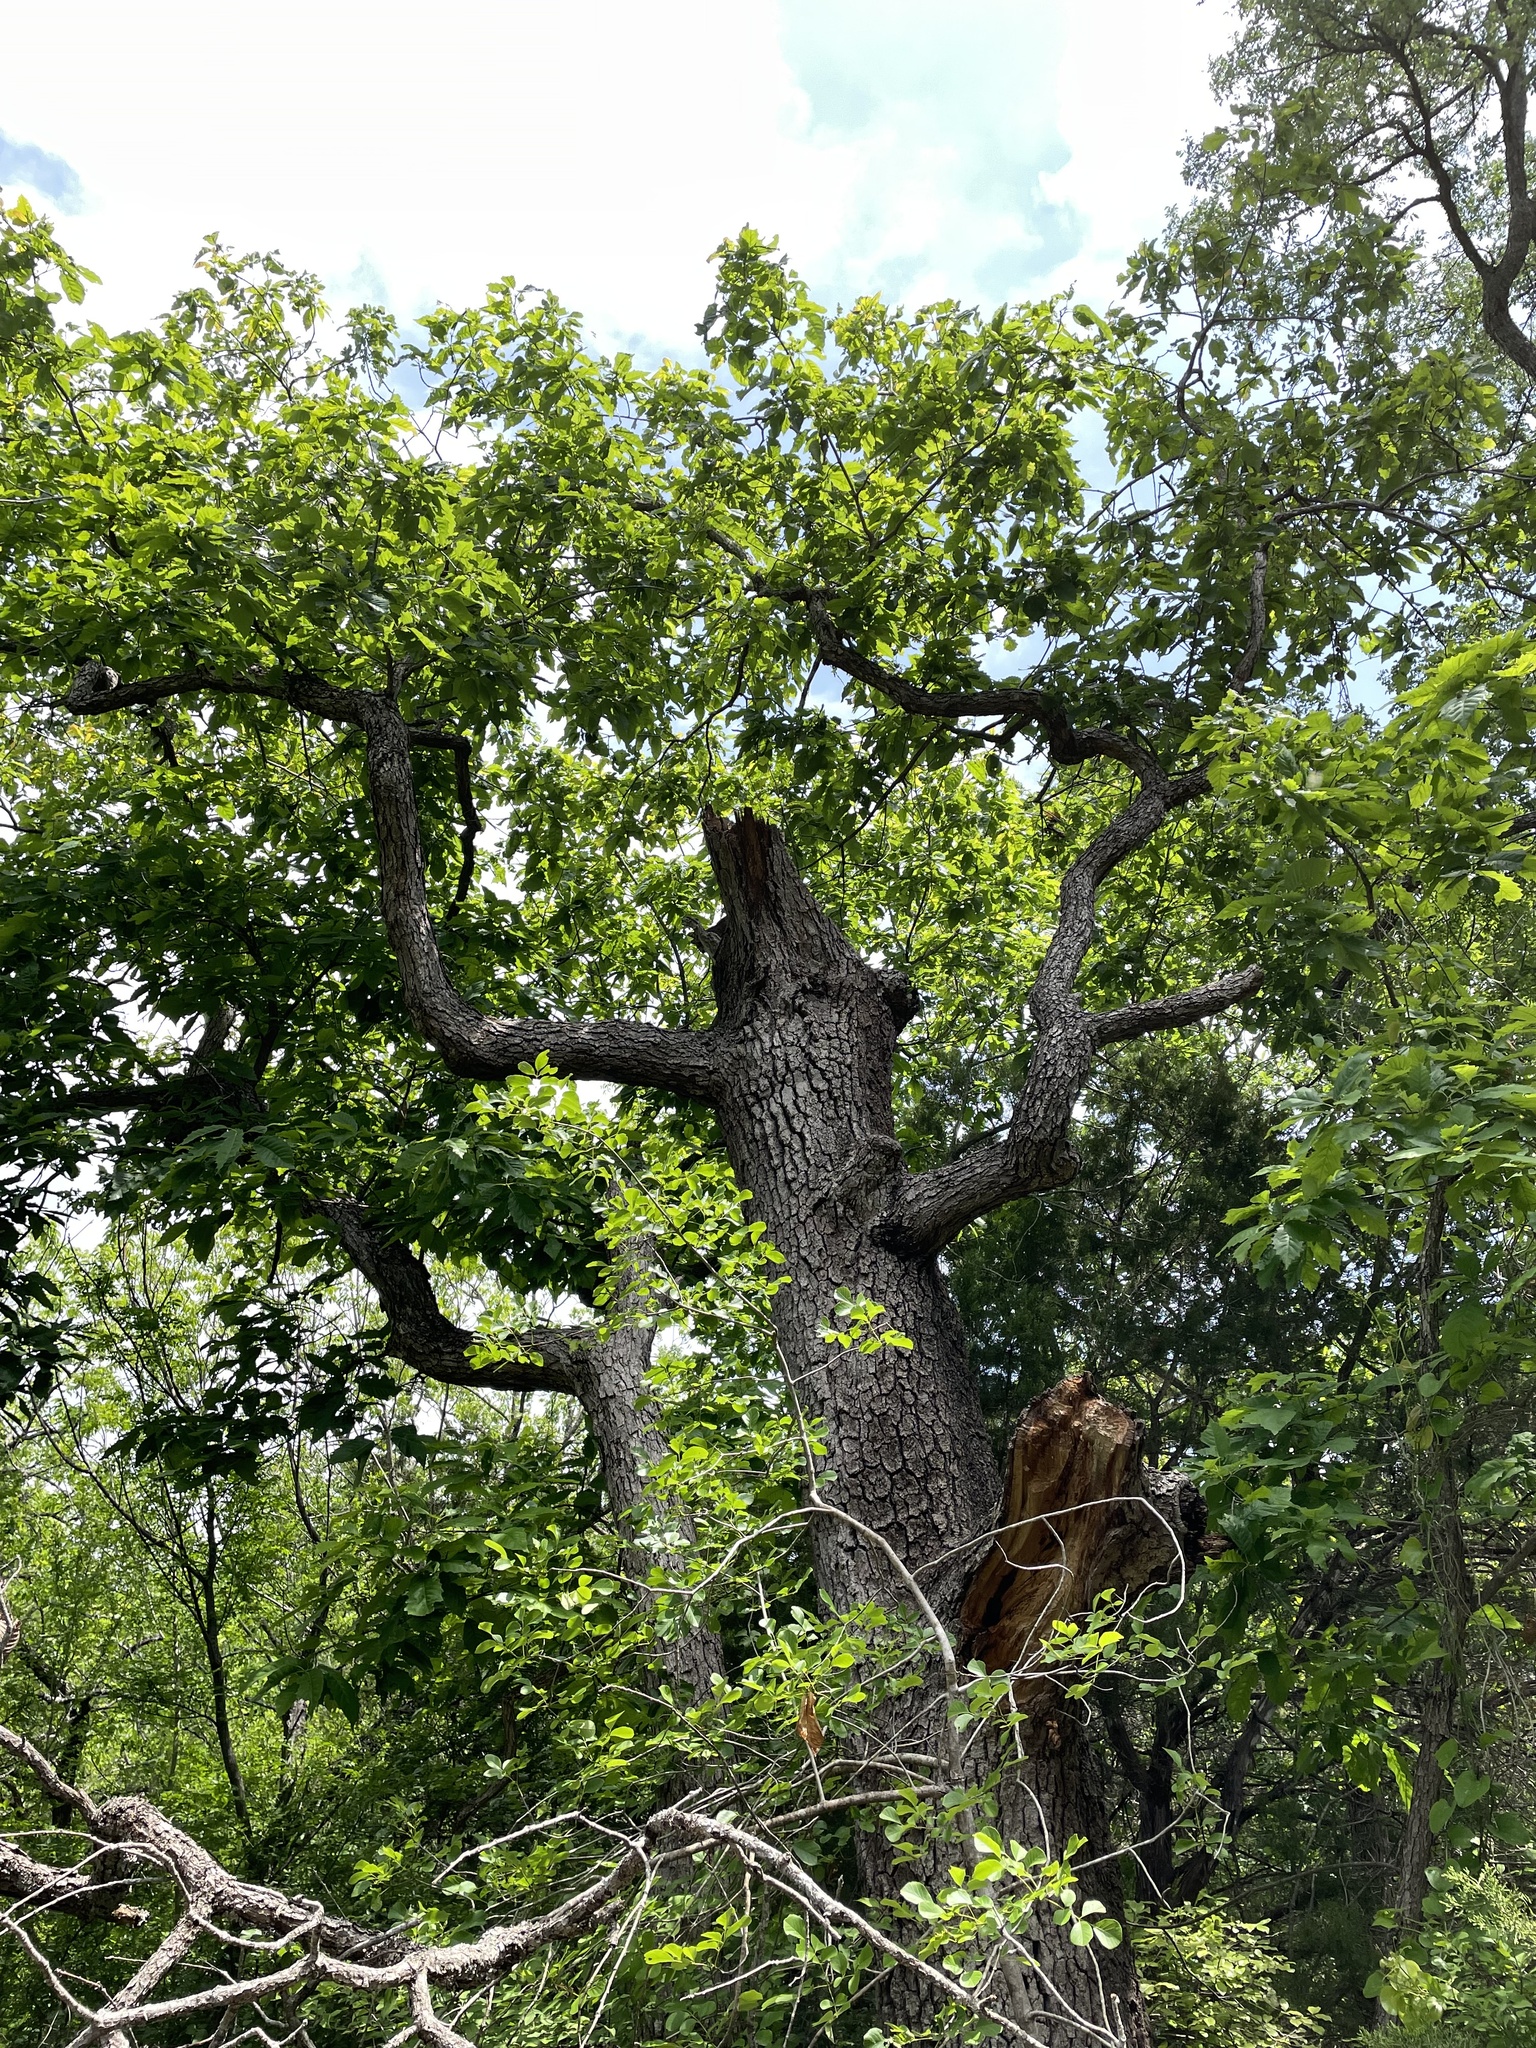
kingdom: Plantae
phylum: Tracheophyta
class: Magnoliopsida
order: Fagales
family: Fagaceae
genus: Quercus
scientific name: Quercus muehlenbergii
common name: Chinkapin oak
